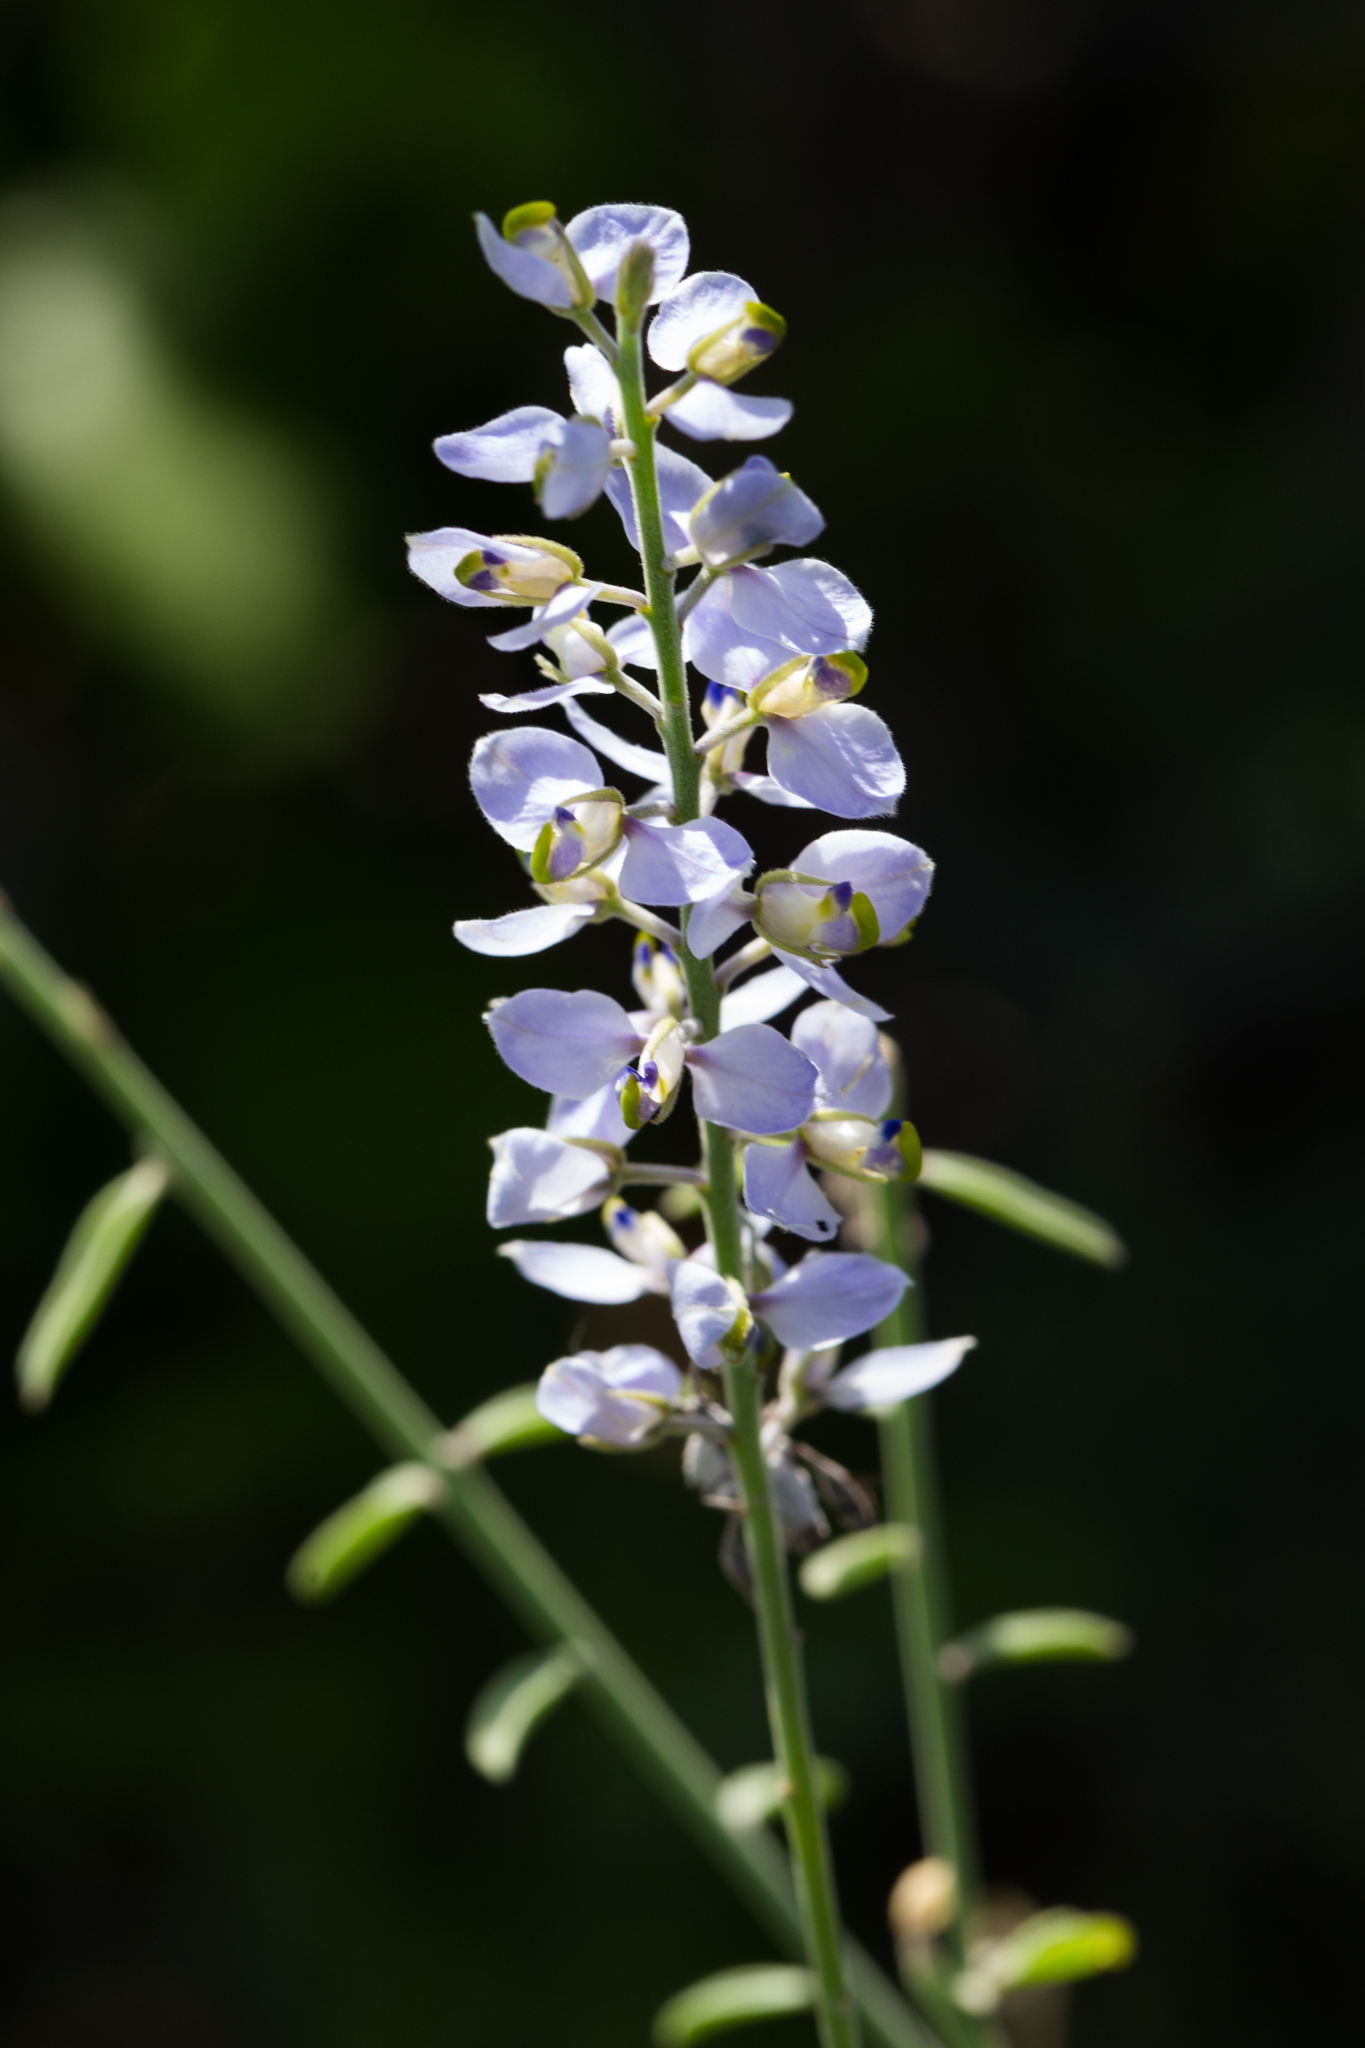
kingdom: Plantae
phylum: Tracheophyta
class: Magnoliopsida
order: Fabales
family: Polygalaceae
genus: Polygala
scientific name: Polygala magdalenae
